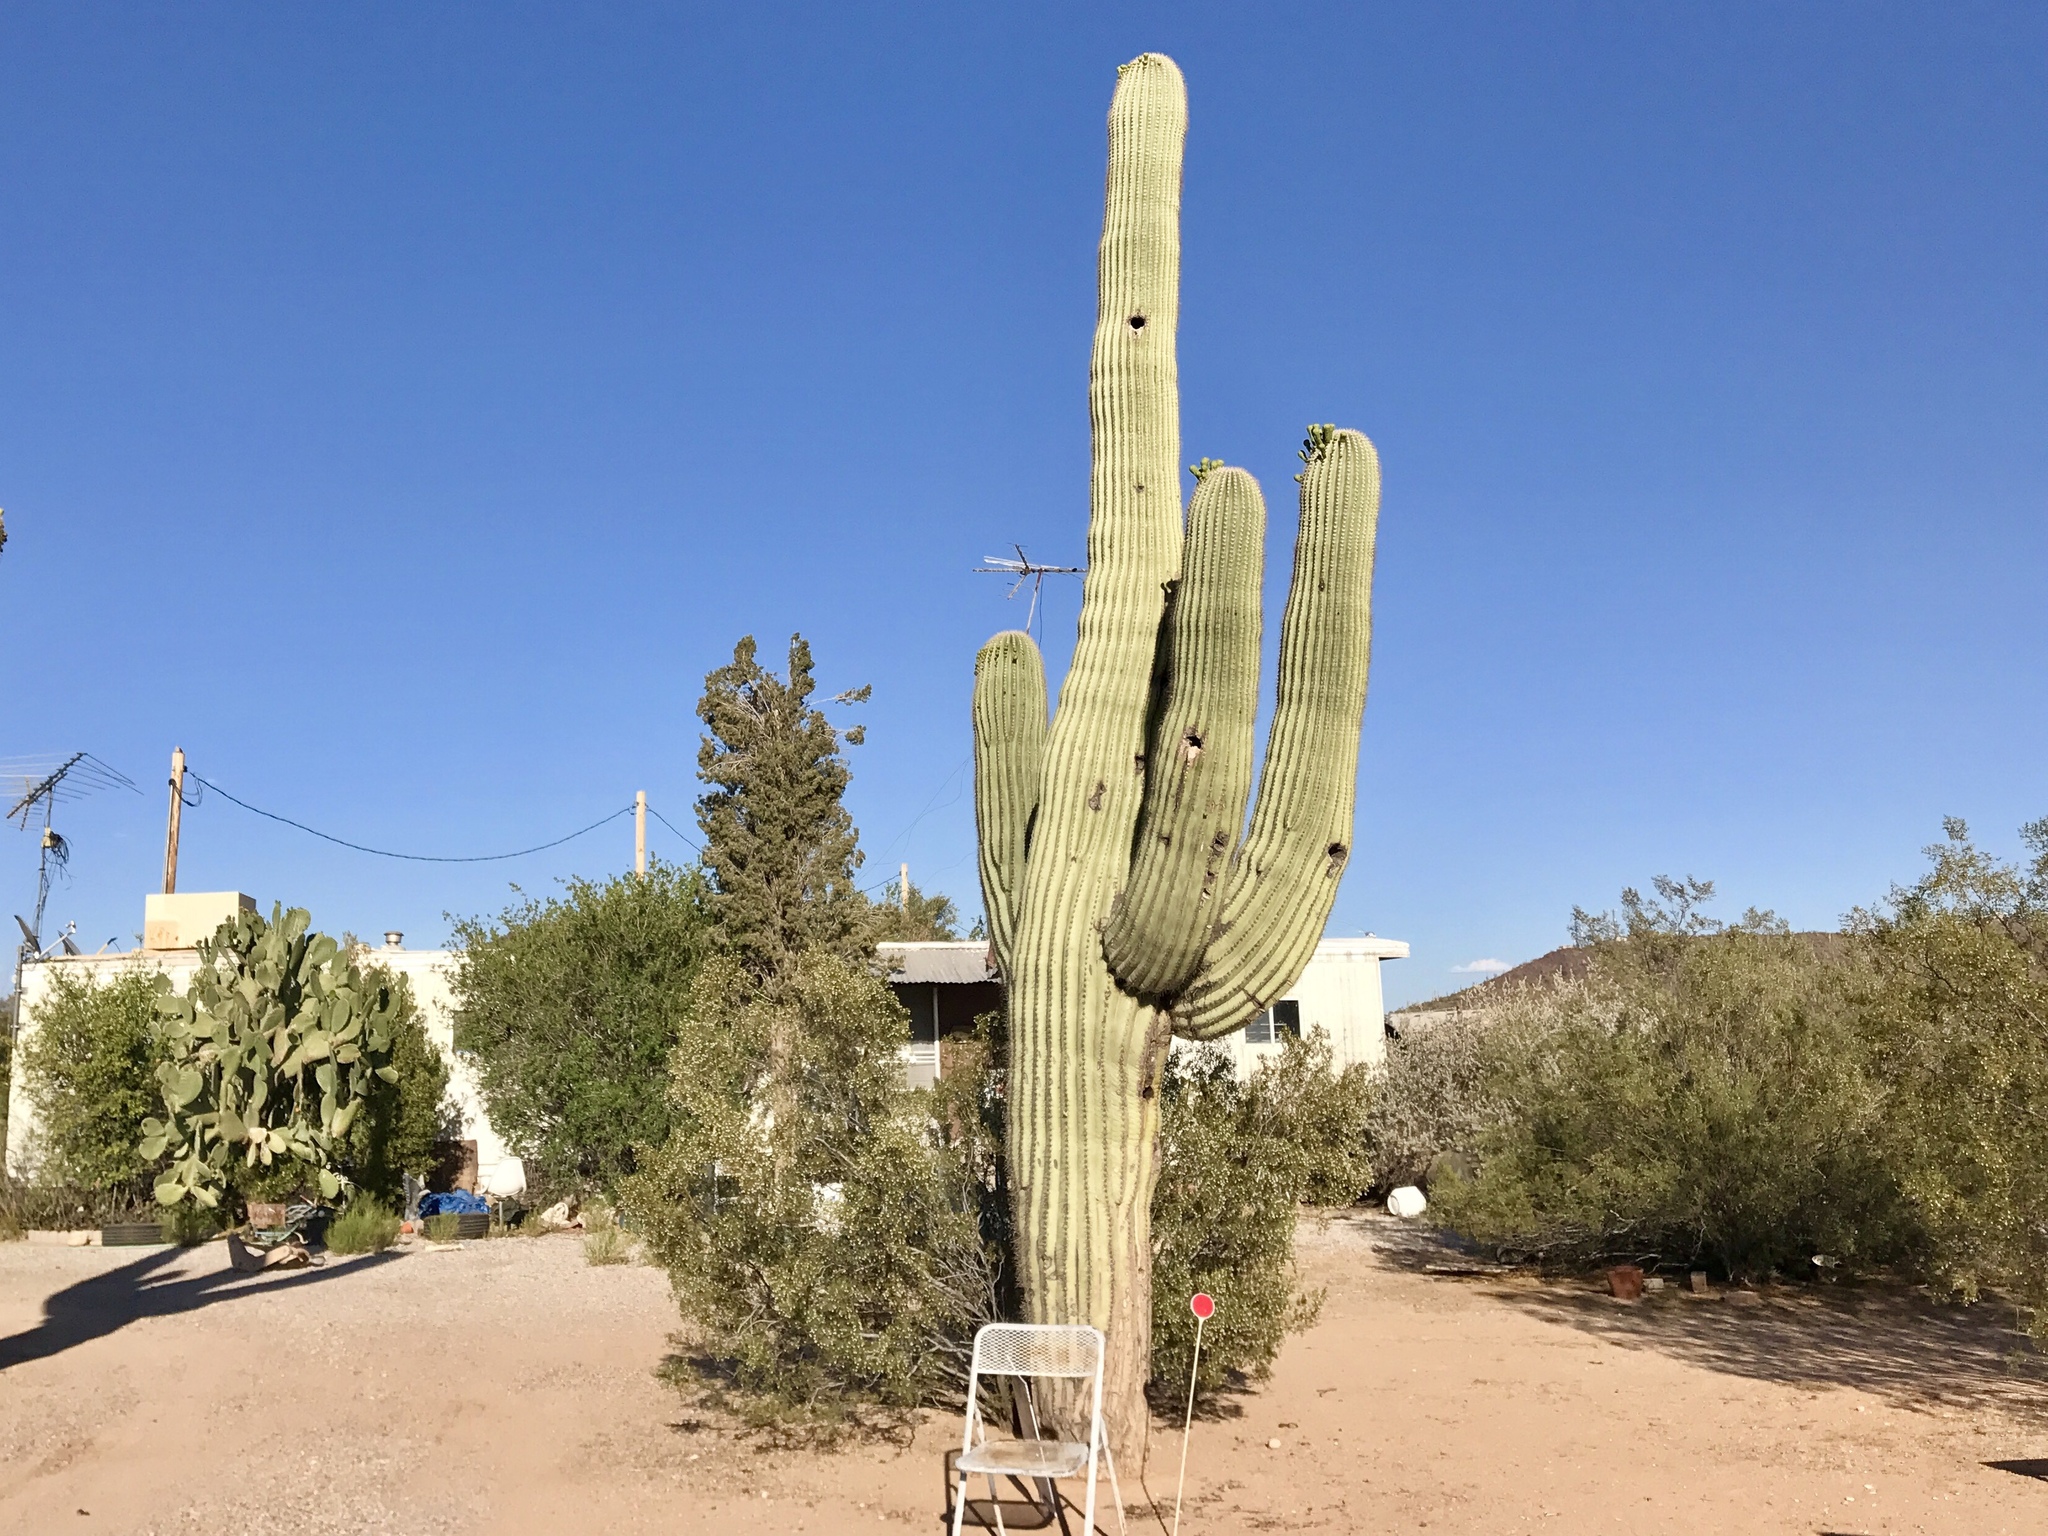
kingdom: Plantae
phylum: Tracheophyta
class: Magnoliopsida
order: Caryophyllales
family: Cactaceae
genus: Carnegiea
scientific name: Carnegiea gigantea
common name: Saguaro
